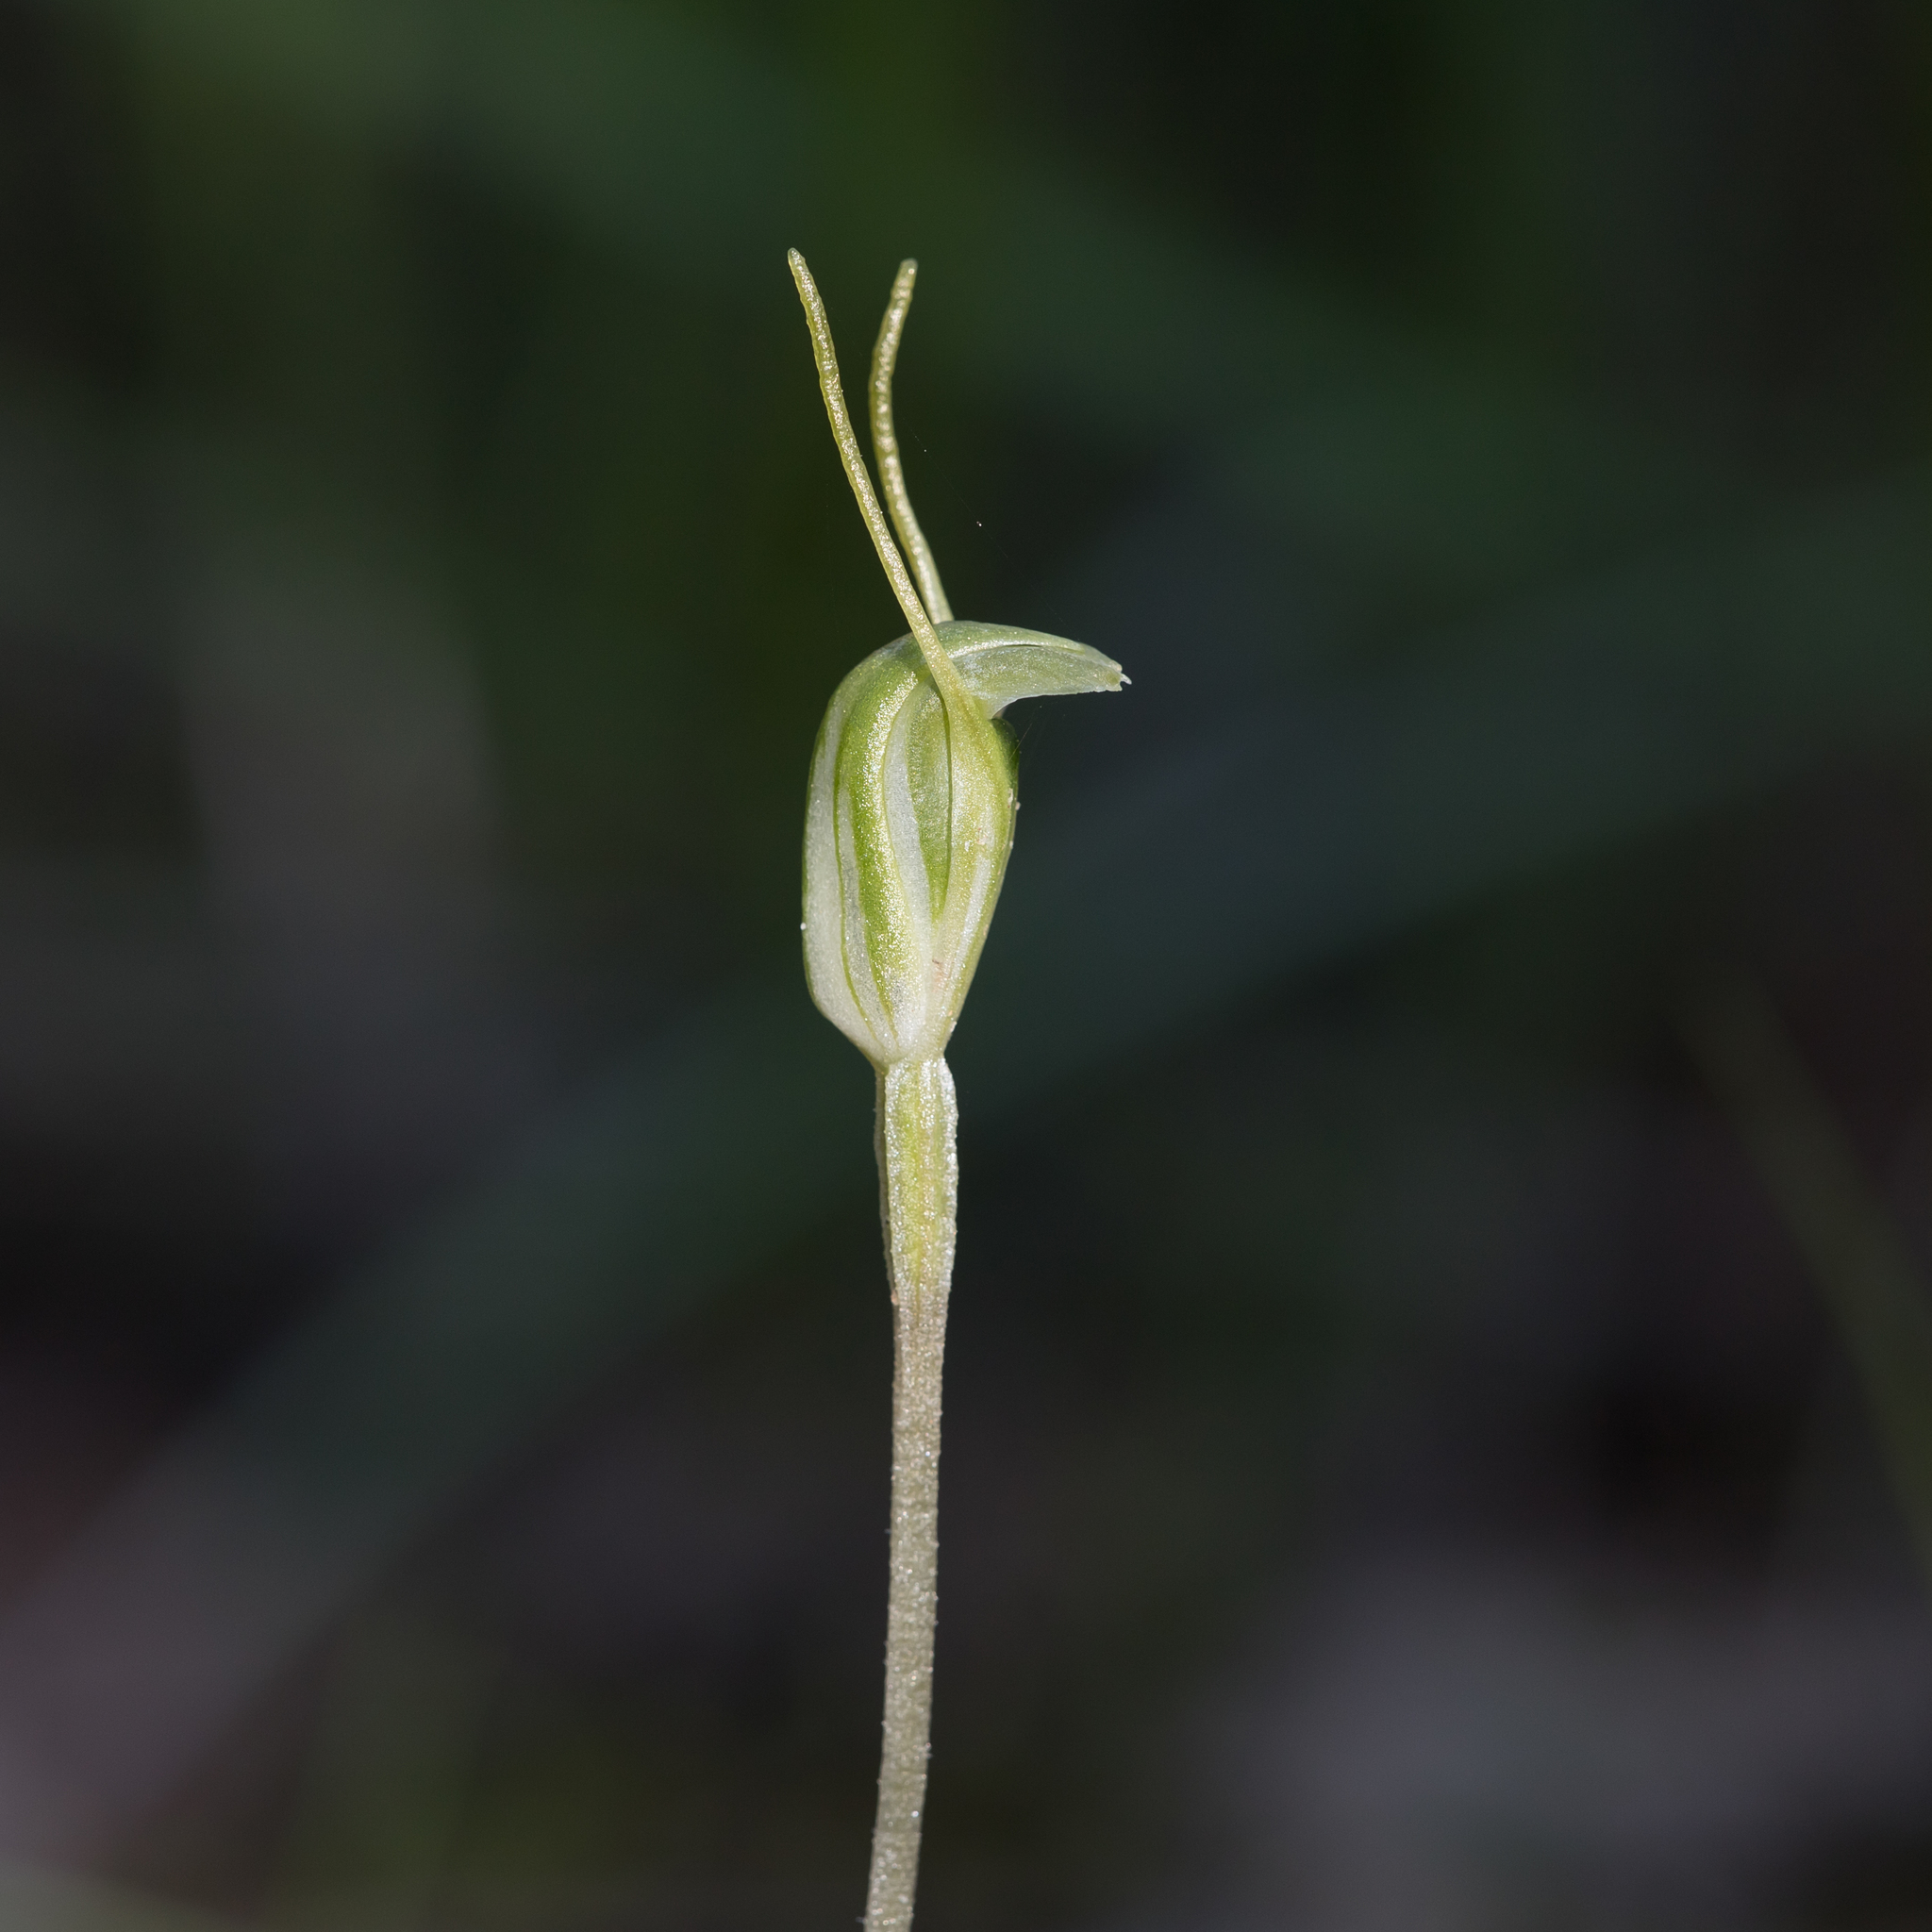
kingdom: Plantae
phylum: Tracheophyta
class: Liliopsida
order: Asparagales
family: Orchidaceae
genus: Pterostylis
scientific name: Pterostylis nana
